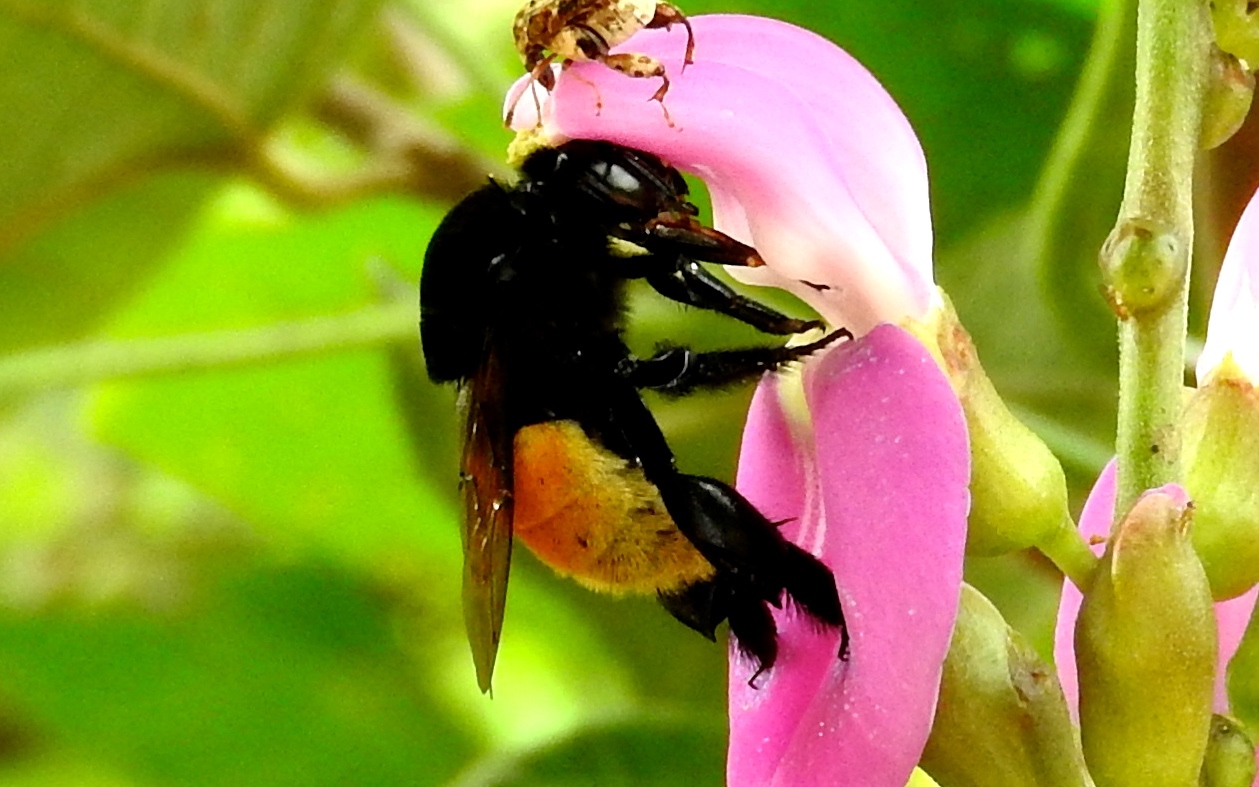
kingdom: Animalia
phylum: Arthropoda
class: Insecta
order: Hymenoptera
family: Apidae
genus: Eulaema
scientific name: Eulaema polychroma
